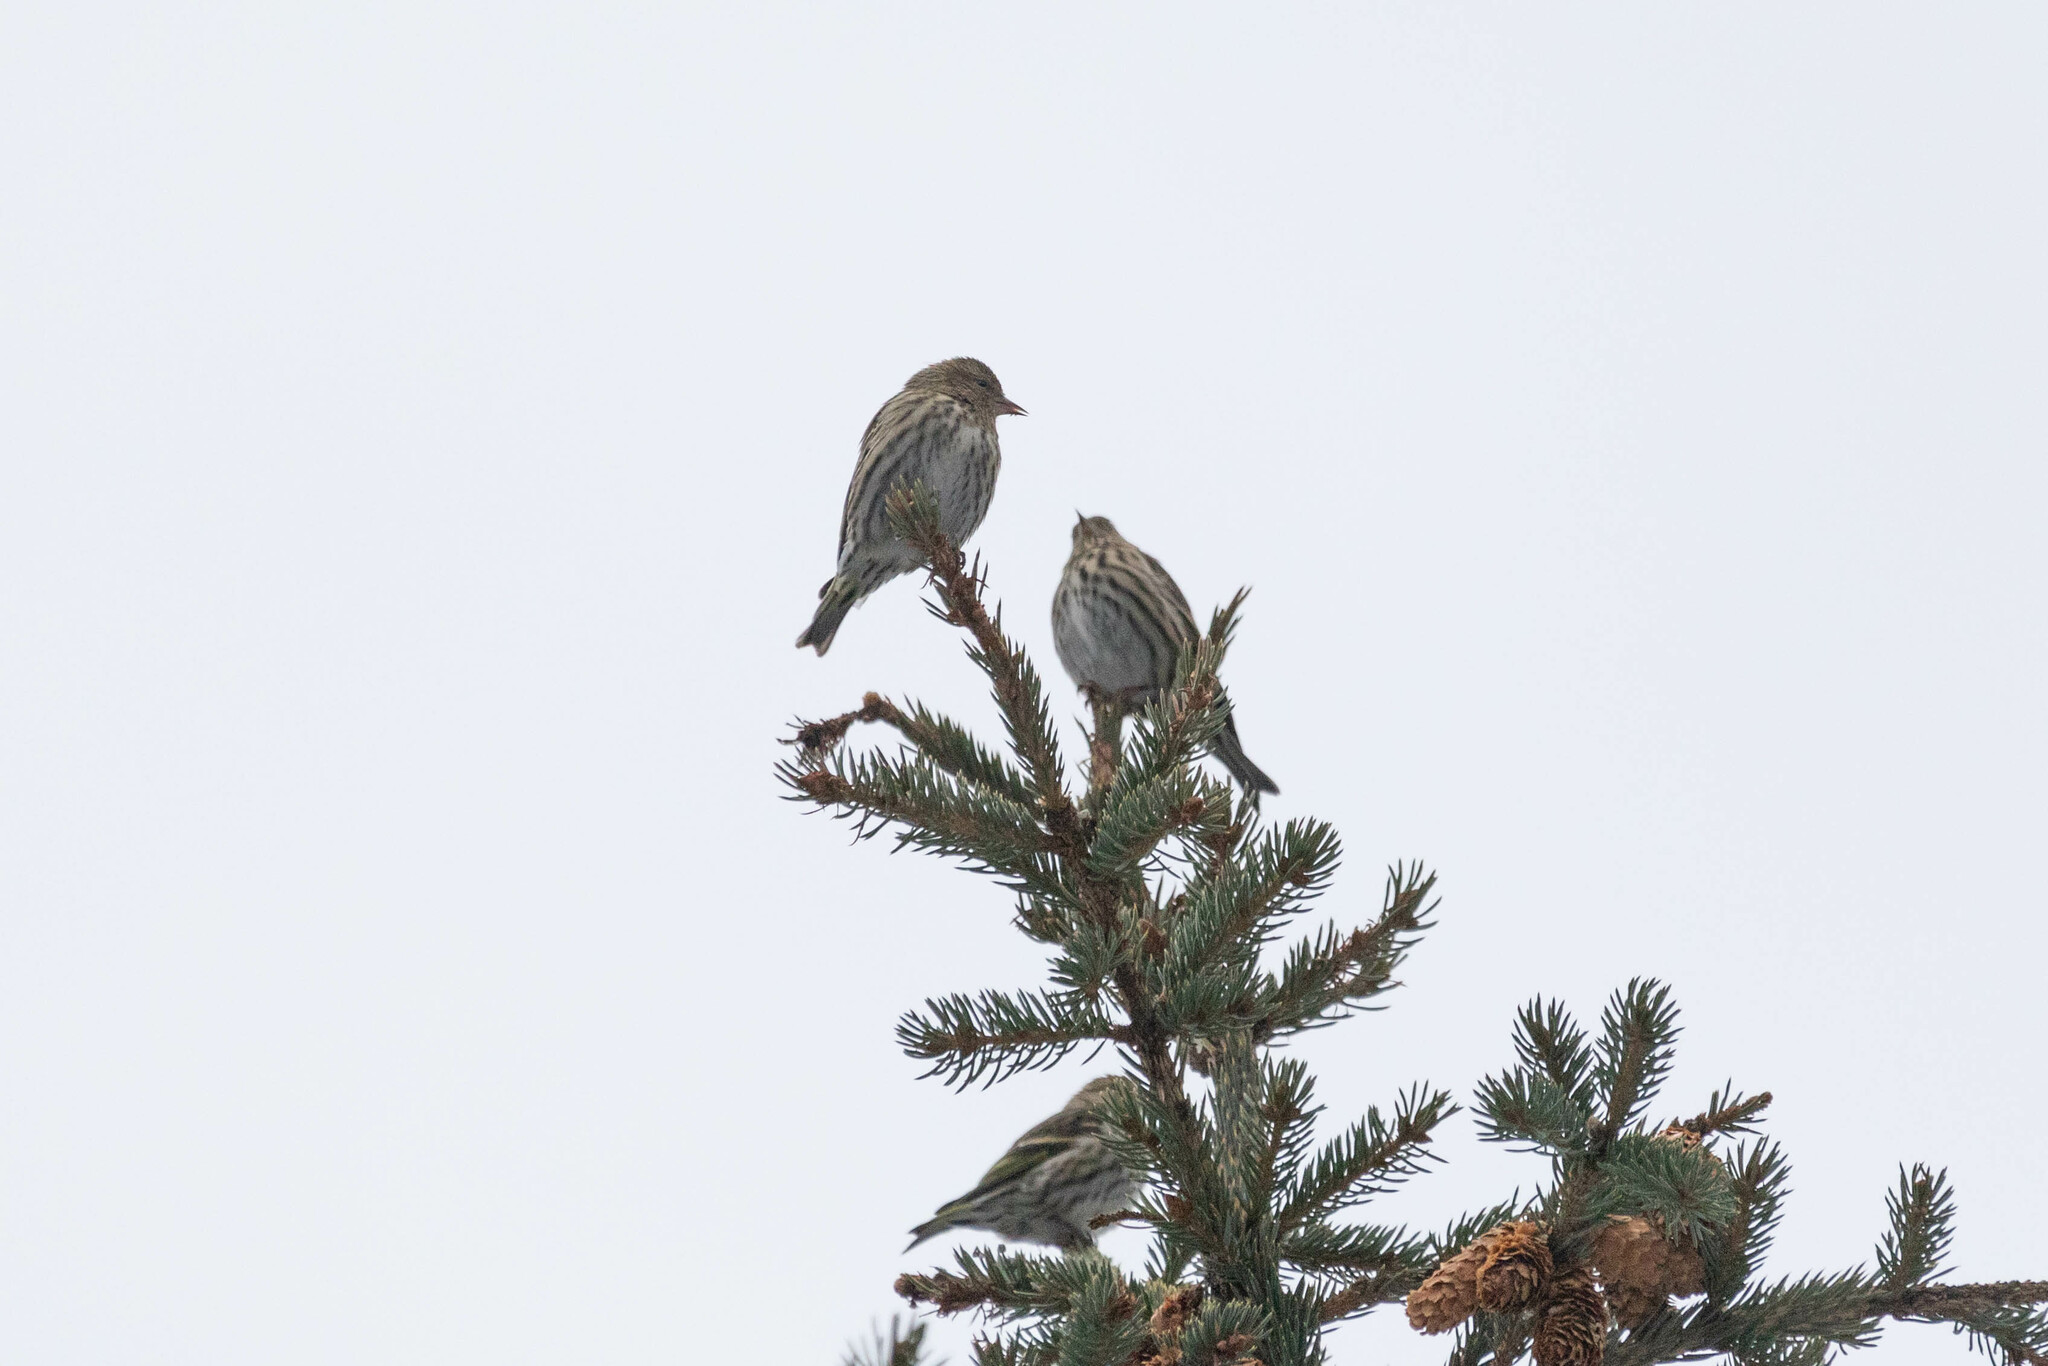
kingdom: Animalia
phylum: Chordata
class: Aves
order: Passeriformes
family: Fringillidae
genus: Spinus
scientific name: Spinus pinus
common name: Pine siskin
